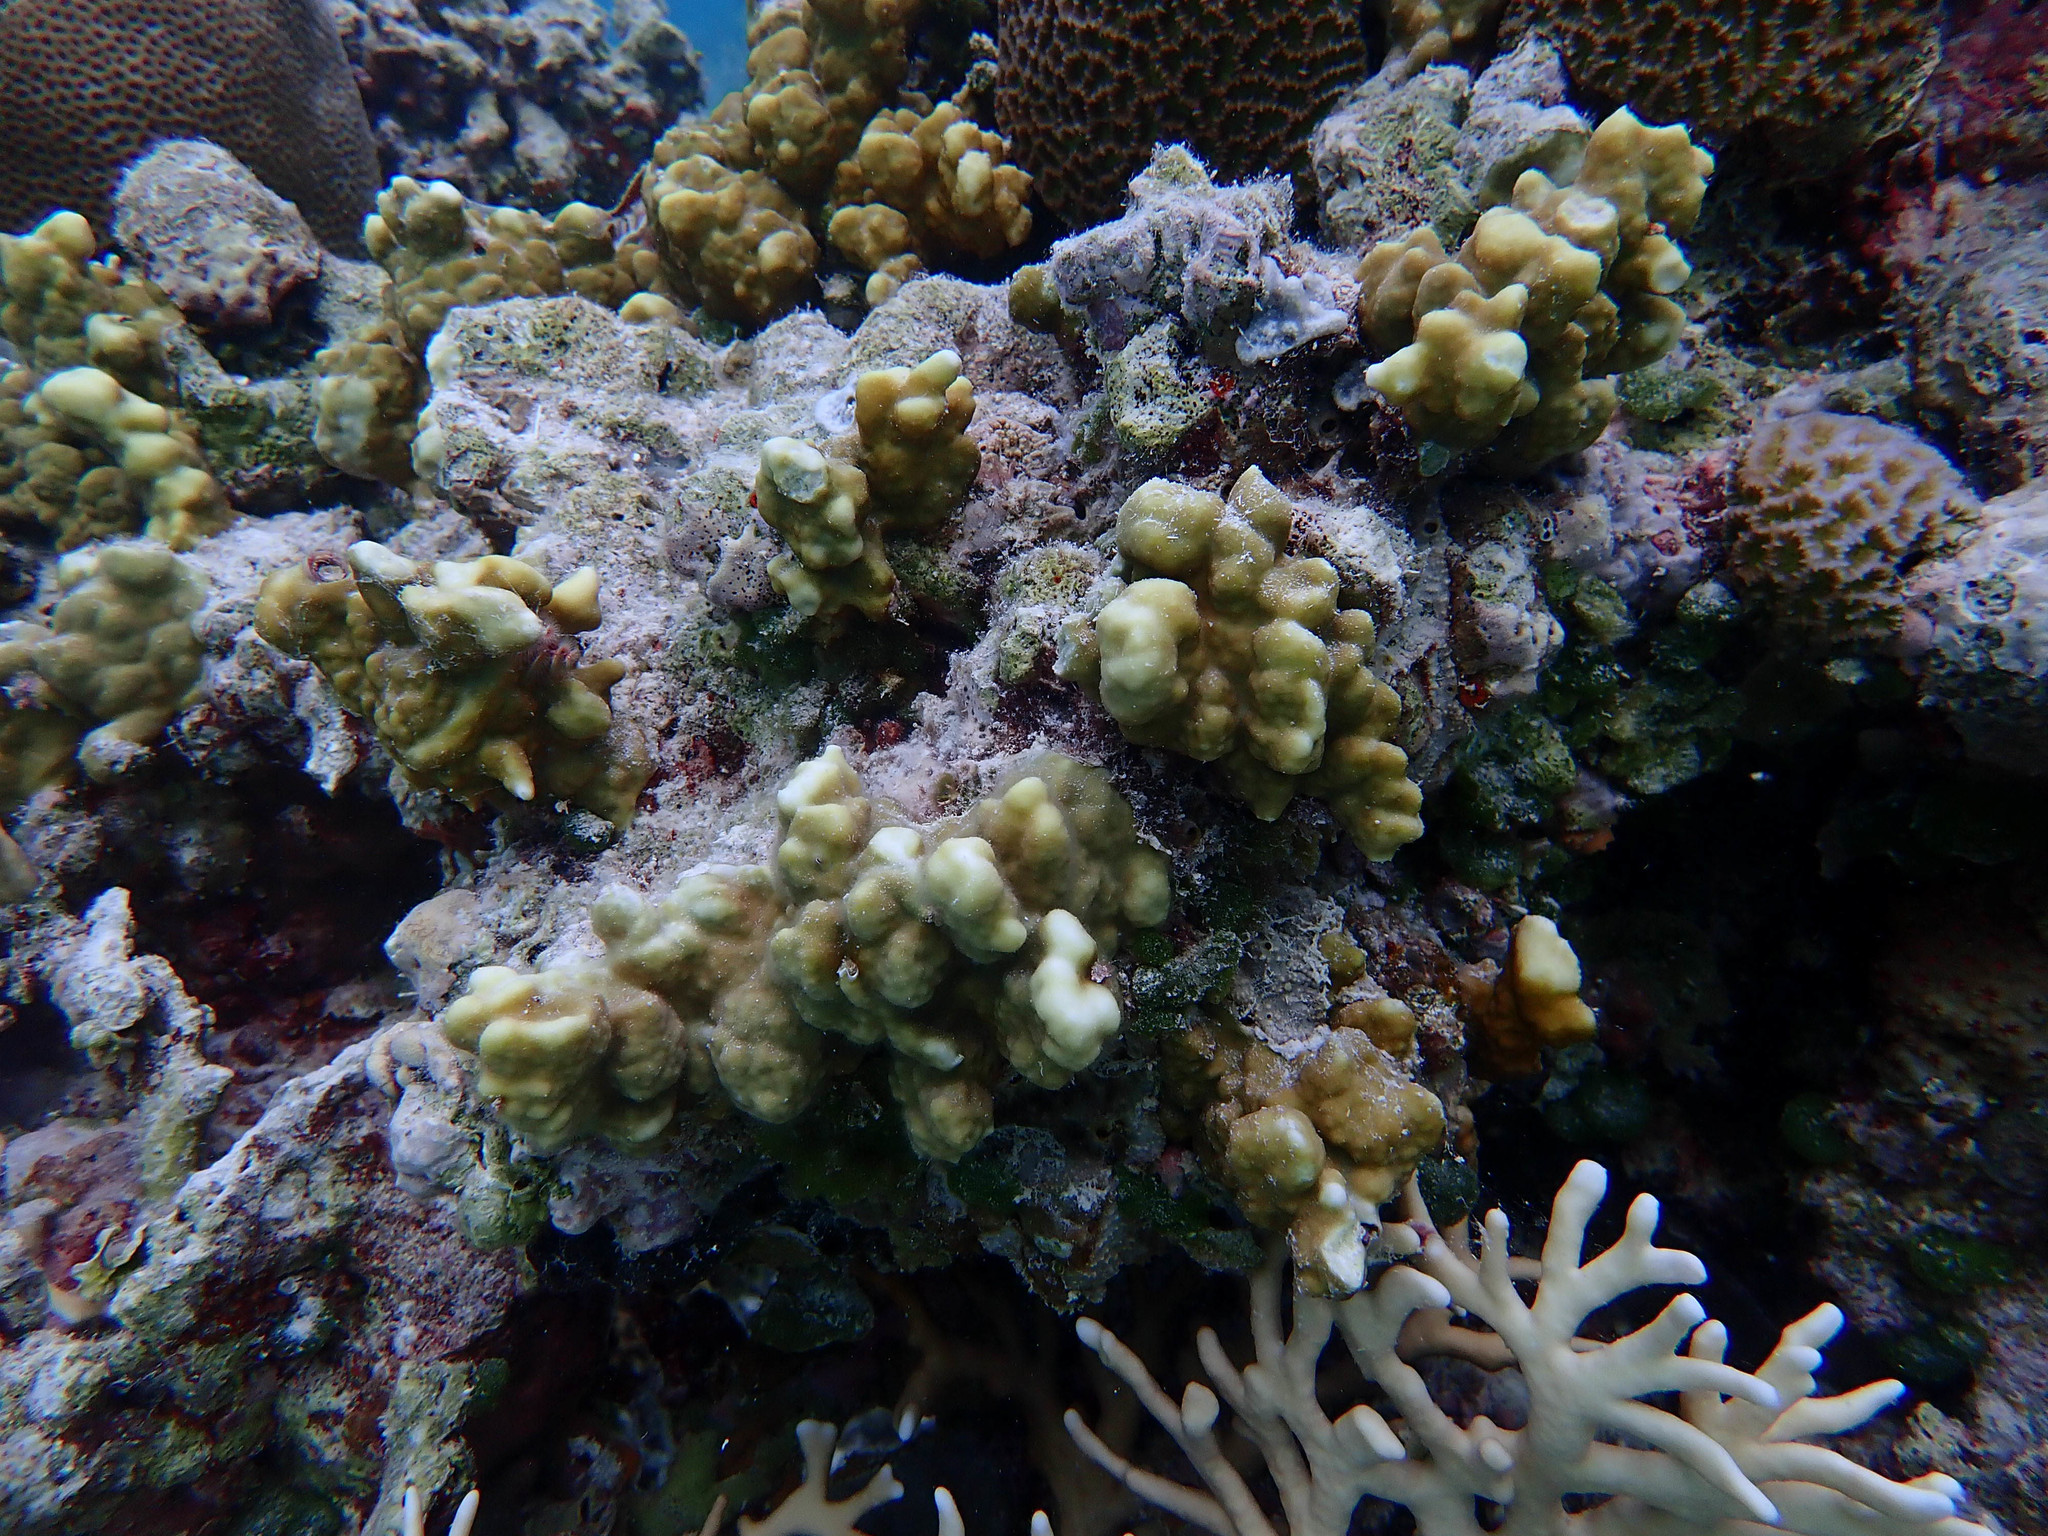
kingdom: Animalia
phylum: Cnidaria
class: Hydrozoa
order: Anthoathecata
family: Milleporidae
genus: Millepora
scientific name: Millepora exaesa
